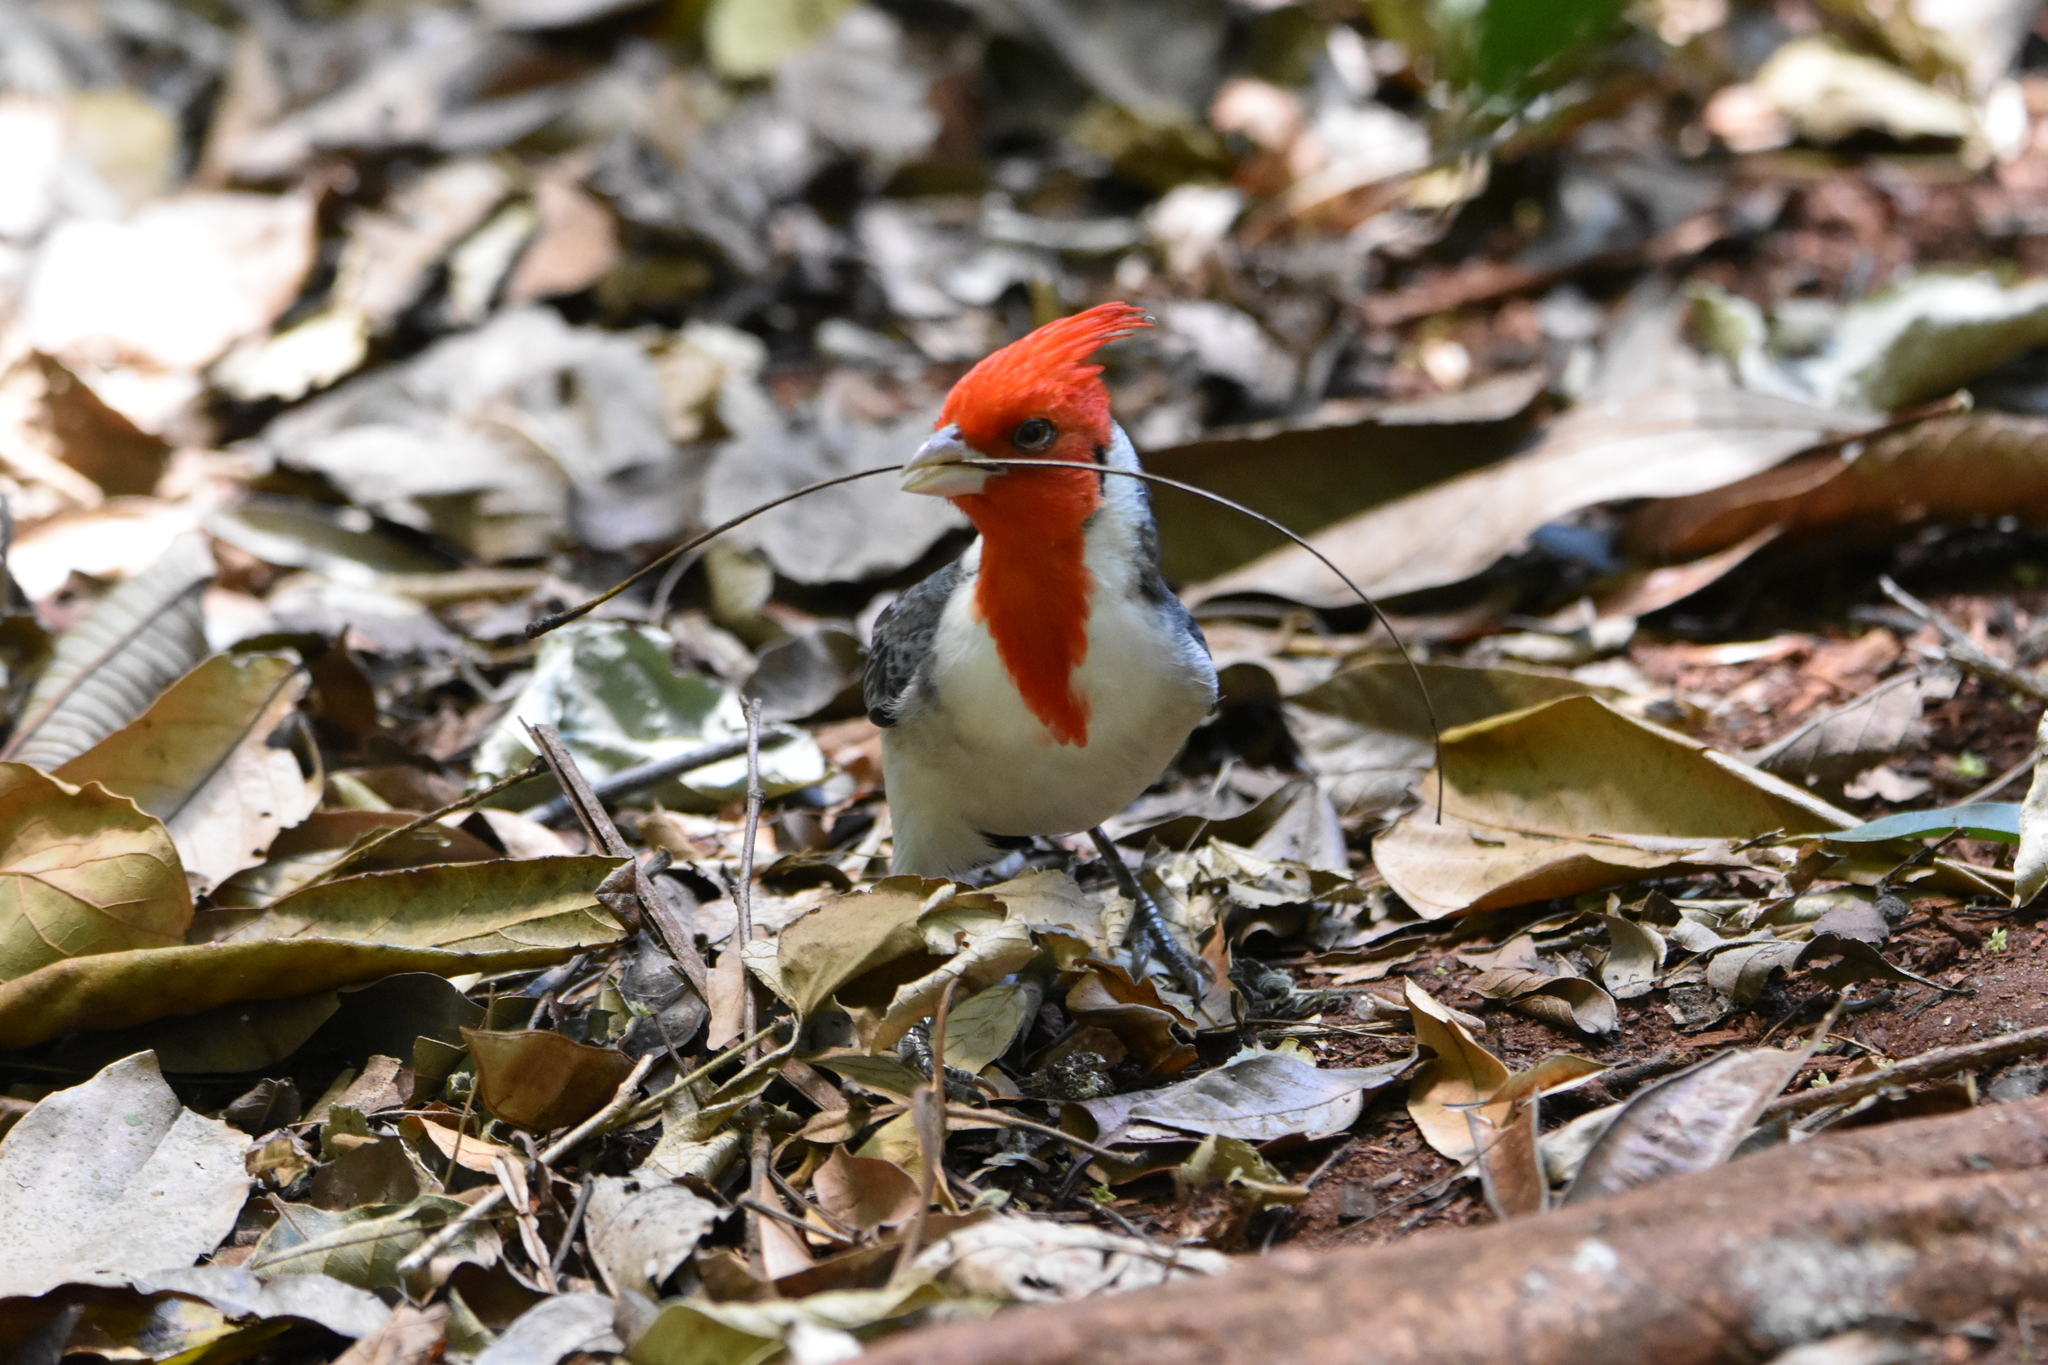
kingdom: Animalia
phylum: Chordata
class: Aves
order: Passeriformes
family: Thraupidae
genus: Paroaria
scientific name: Paroaria coronata
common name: Red-crested cardinal
